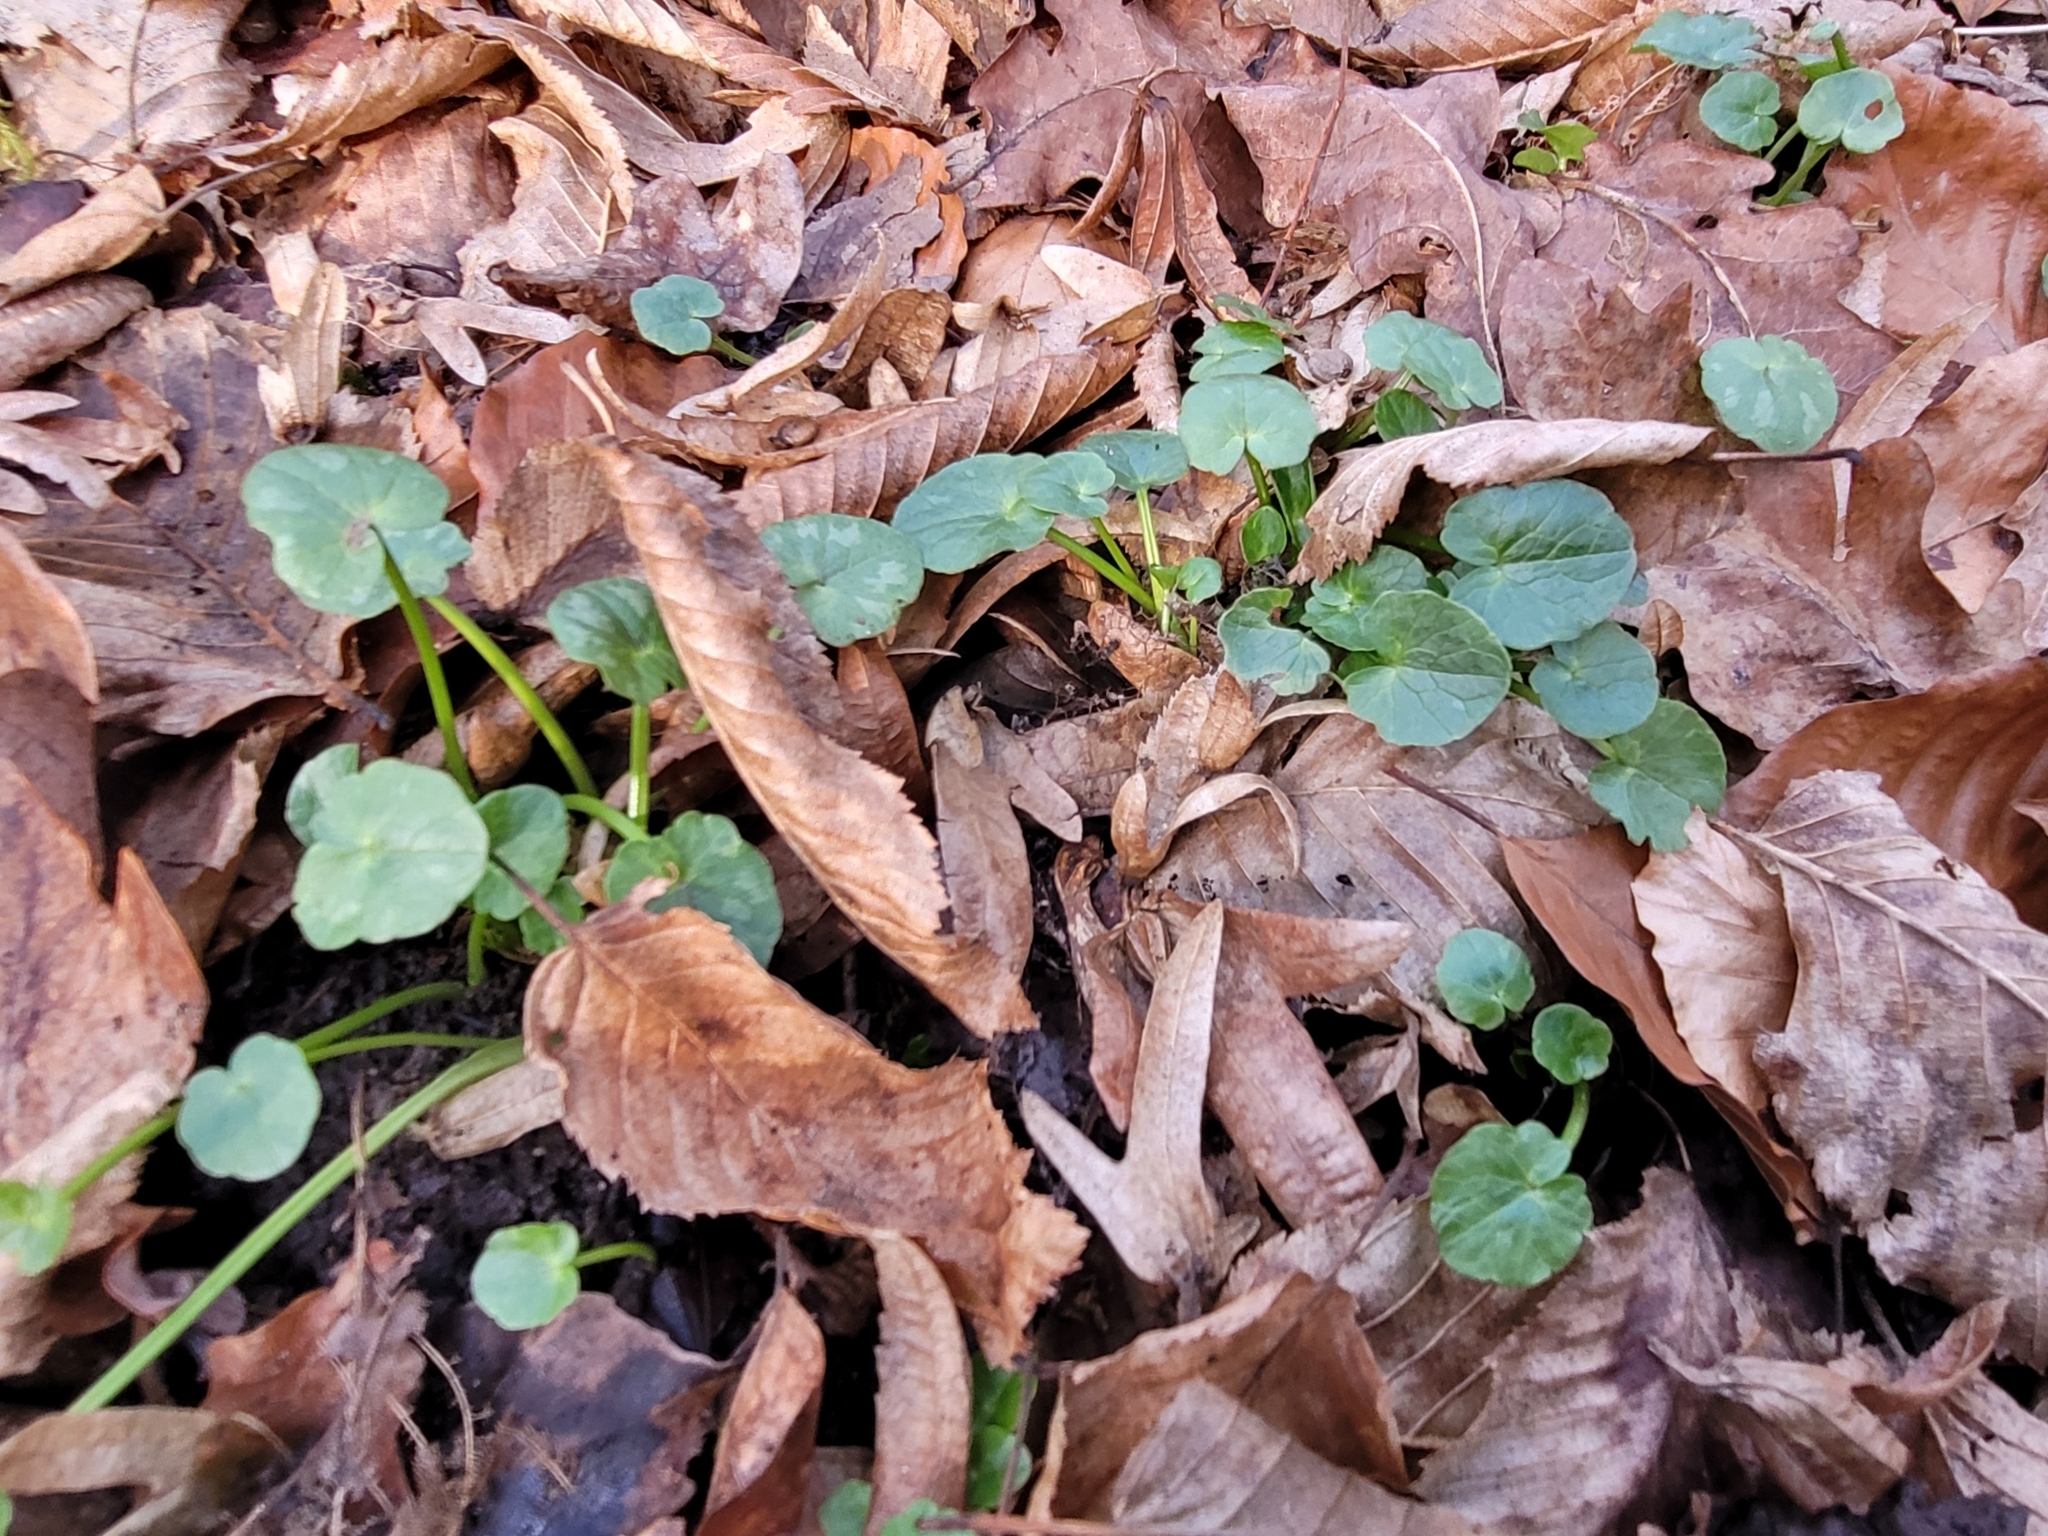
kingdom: Plantae
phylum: Tracheophyta
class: Magnoliopsida
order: Ranunculales
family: Ranunculaceae
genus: Ficaria
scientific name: Ficaria verna
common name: Lesser celandine
